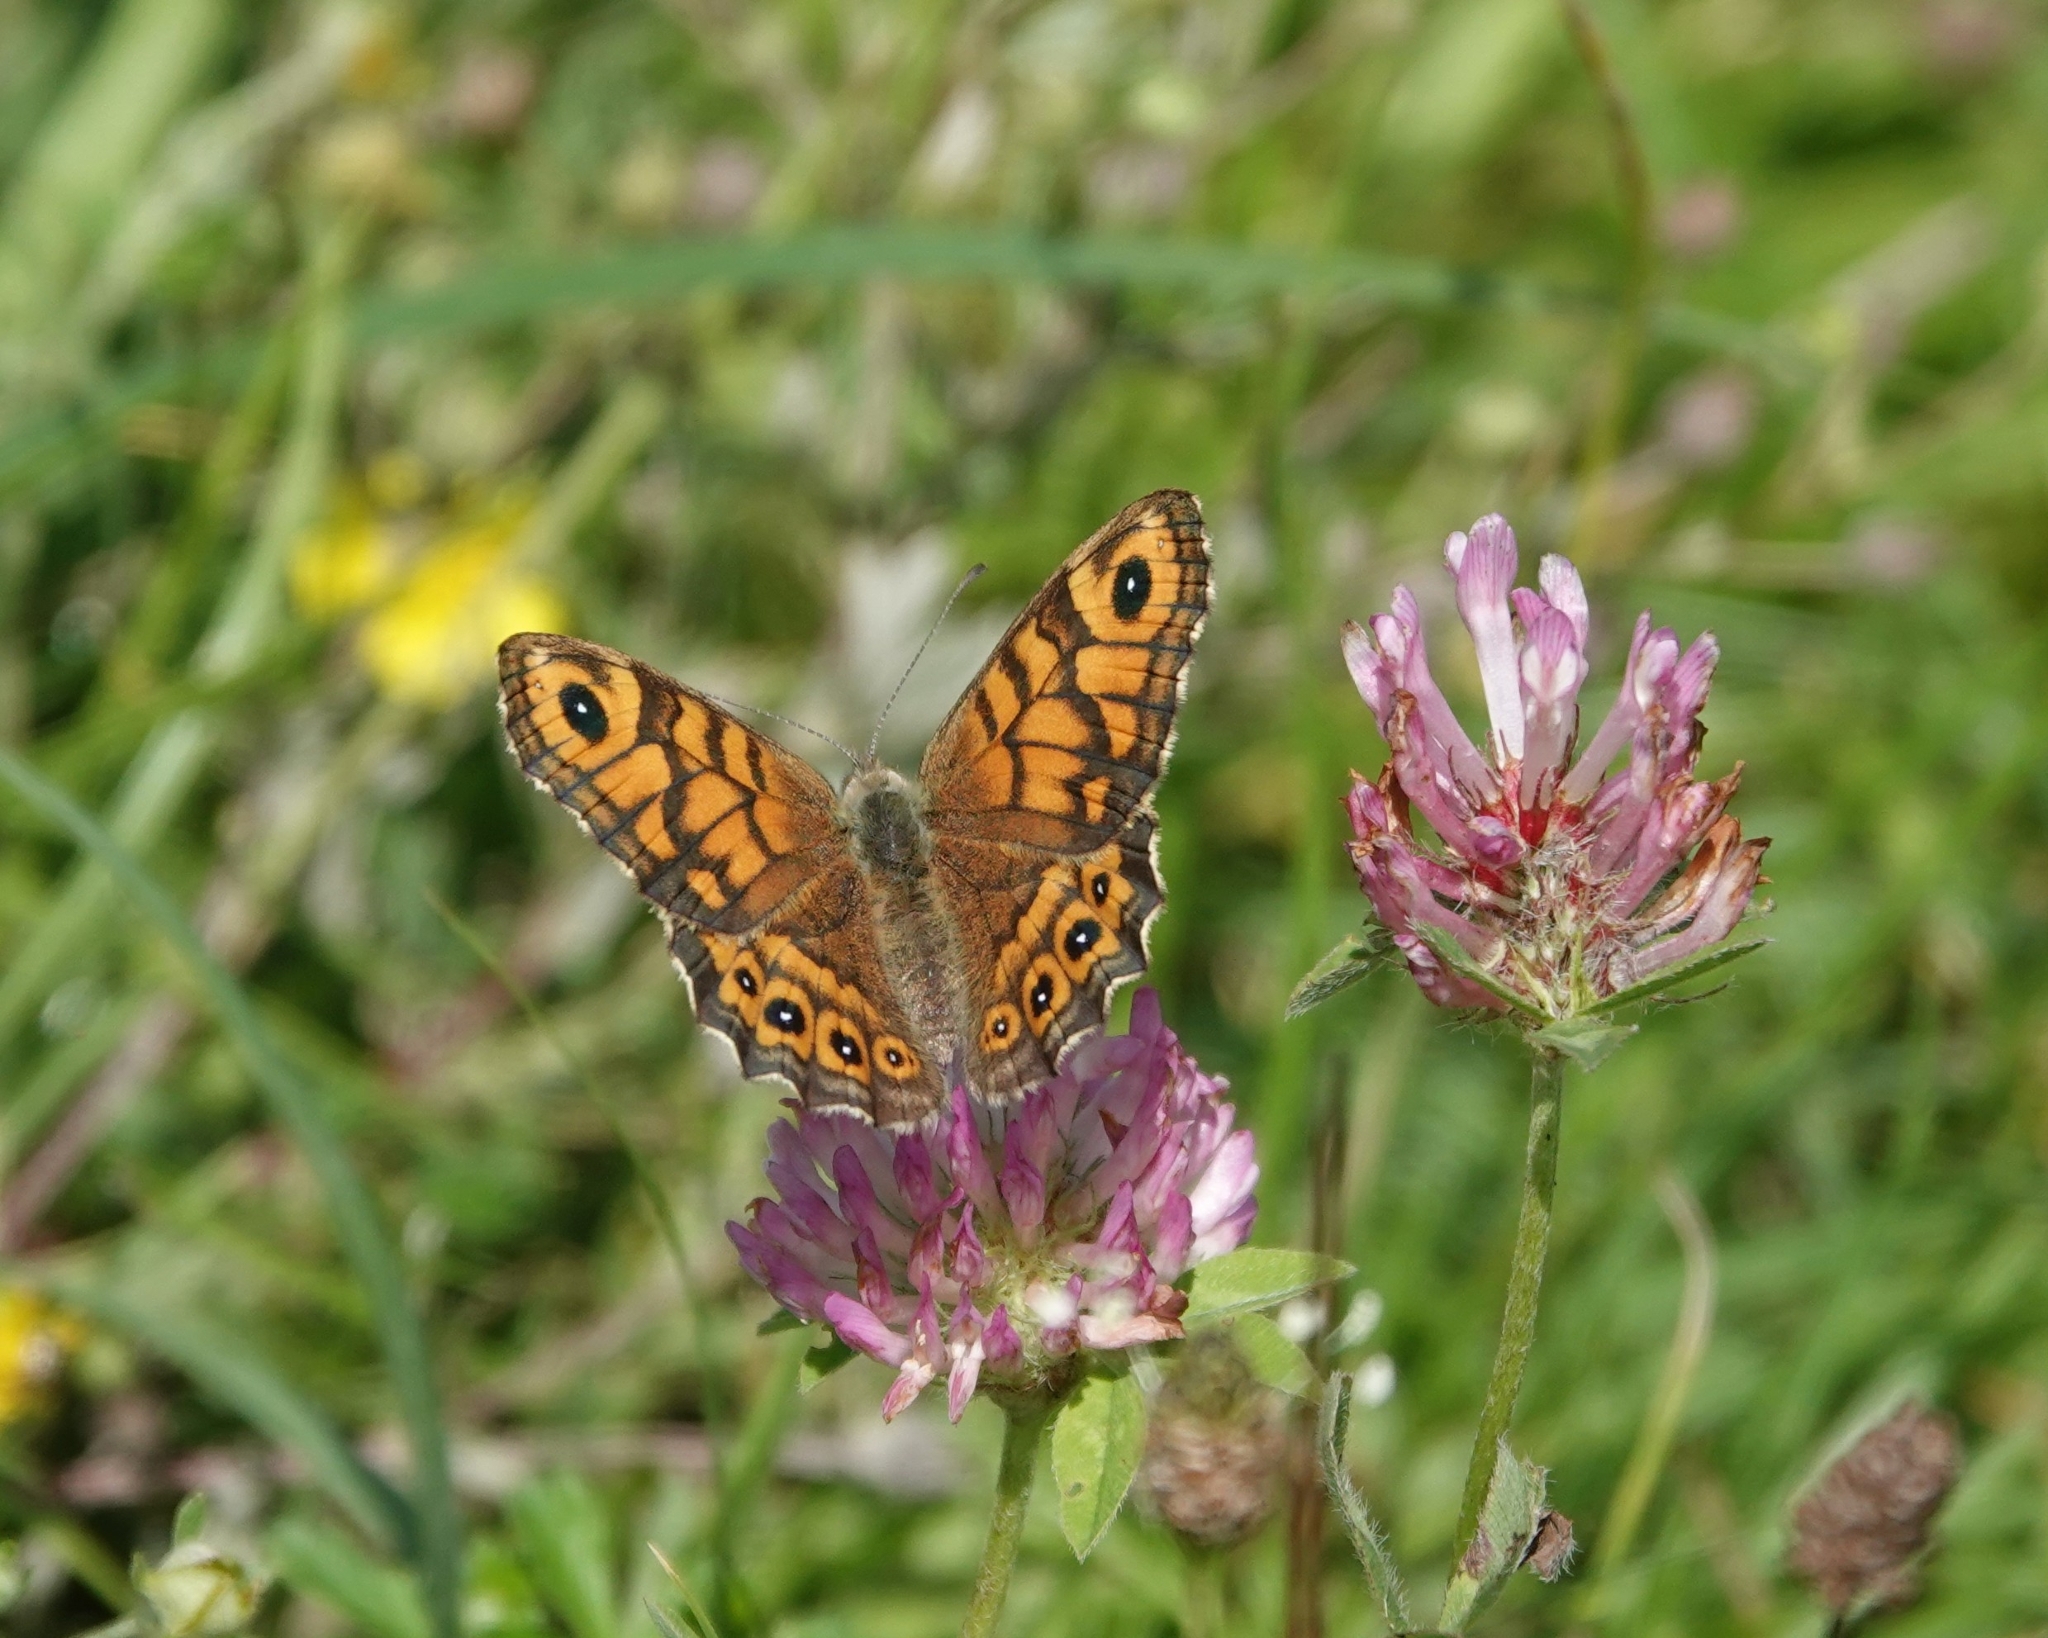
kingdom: Animalia
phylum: Arthropoda
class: Insecta
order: Lepidoptera
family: Nymphalidae
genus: Pararge
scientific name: Pararge Lasiommata megera
